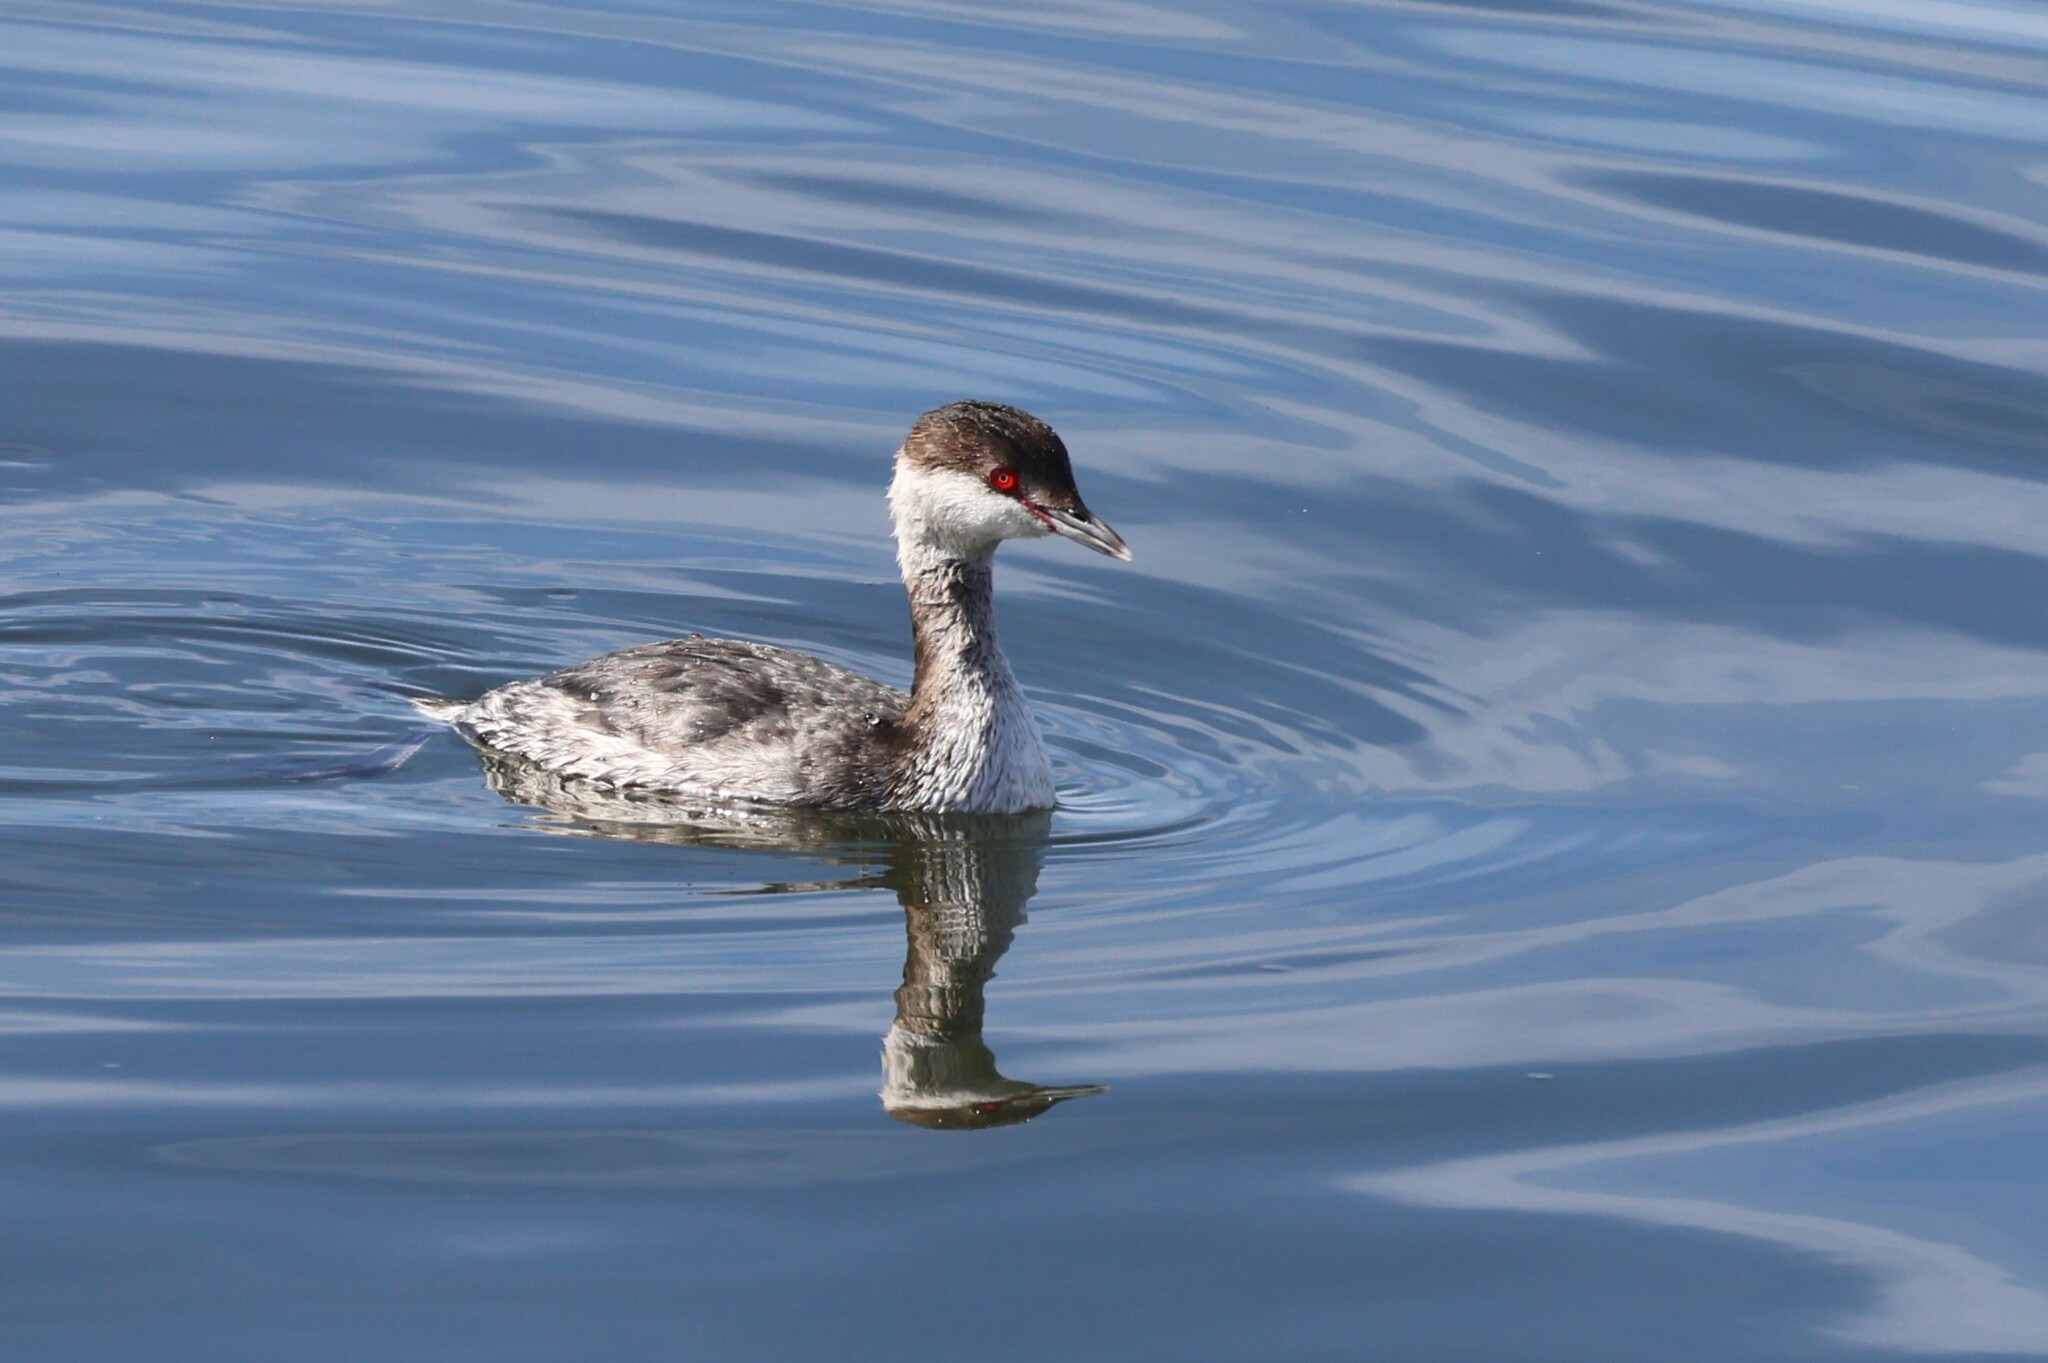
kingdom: Animalia
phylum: Chordata
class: Aves
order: Podicipediformes
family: Podicipedidae
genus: Podiceps
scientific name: Podiceps auritus
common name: Horned grebe
